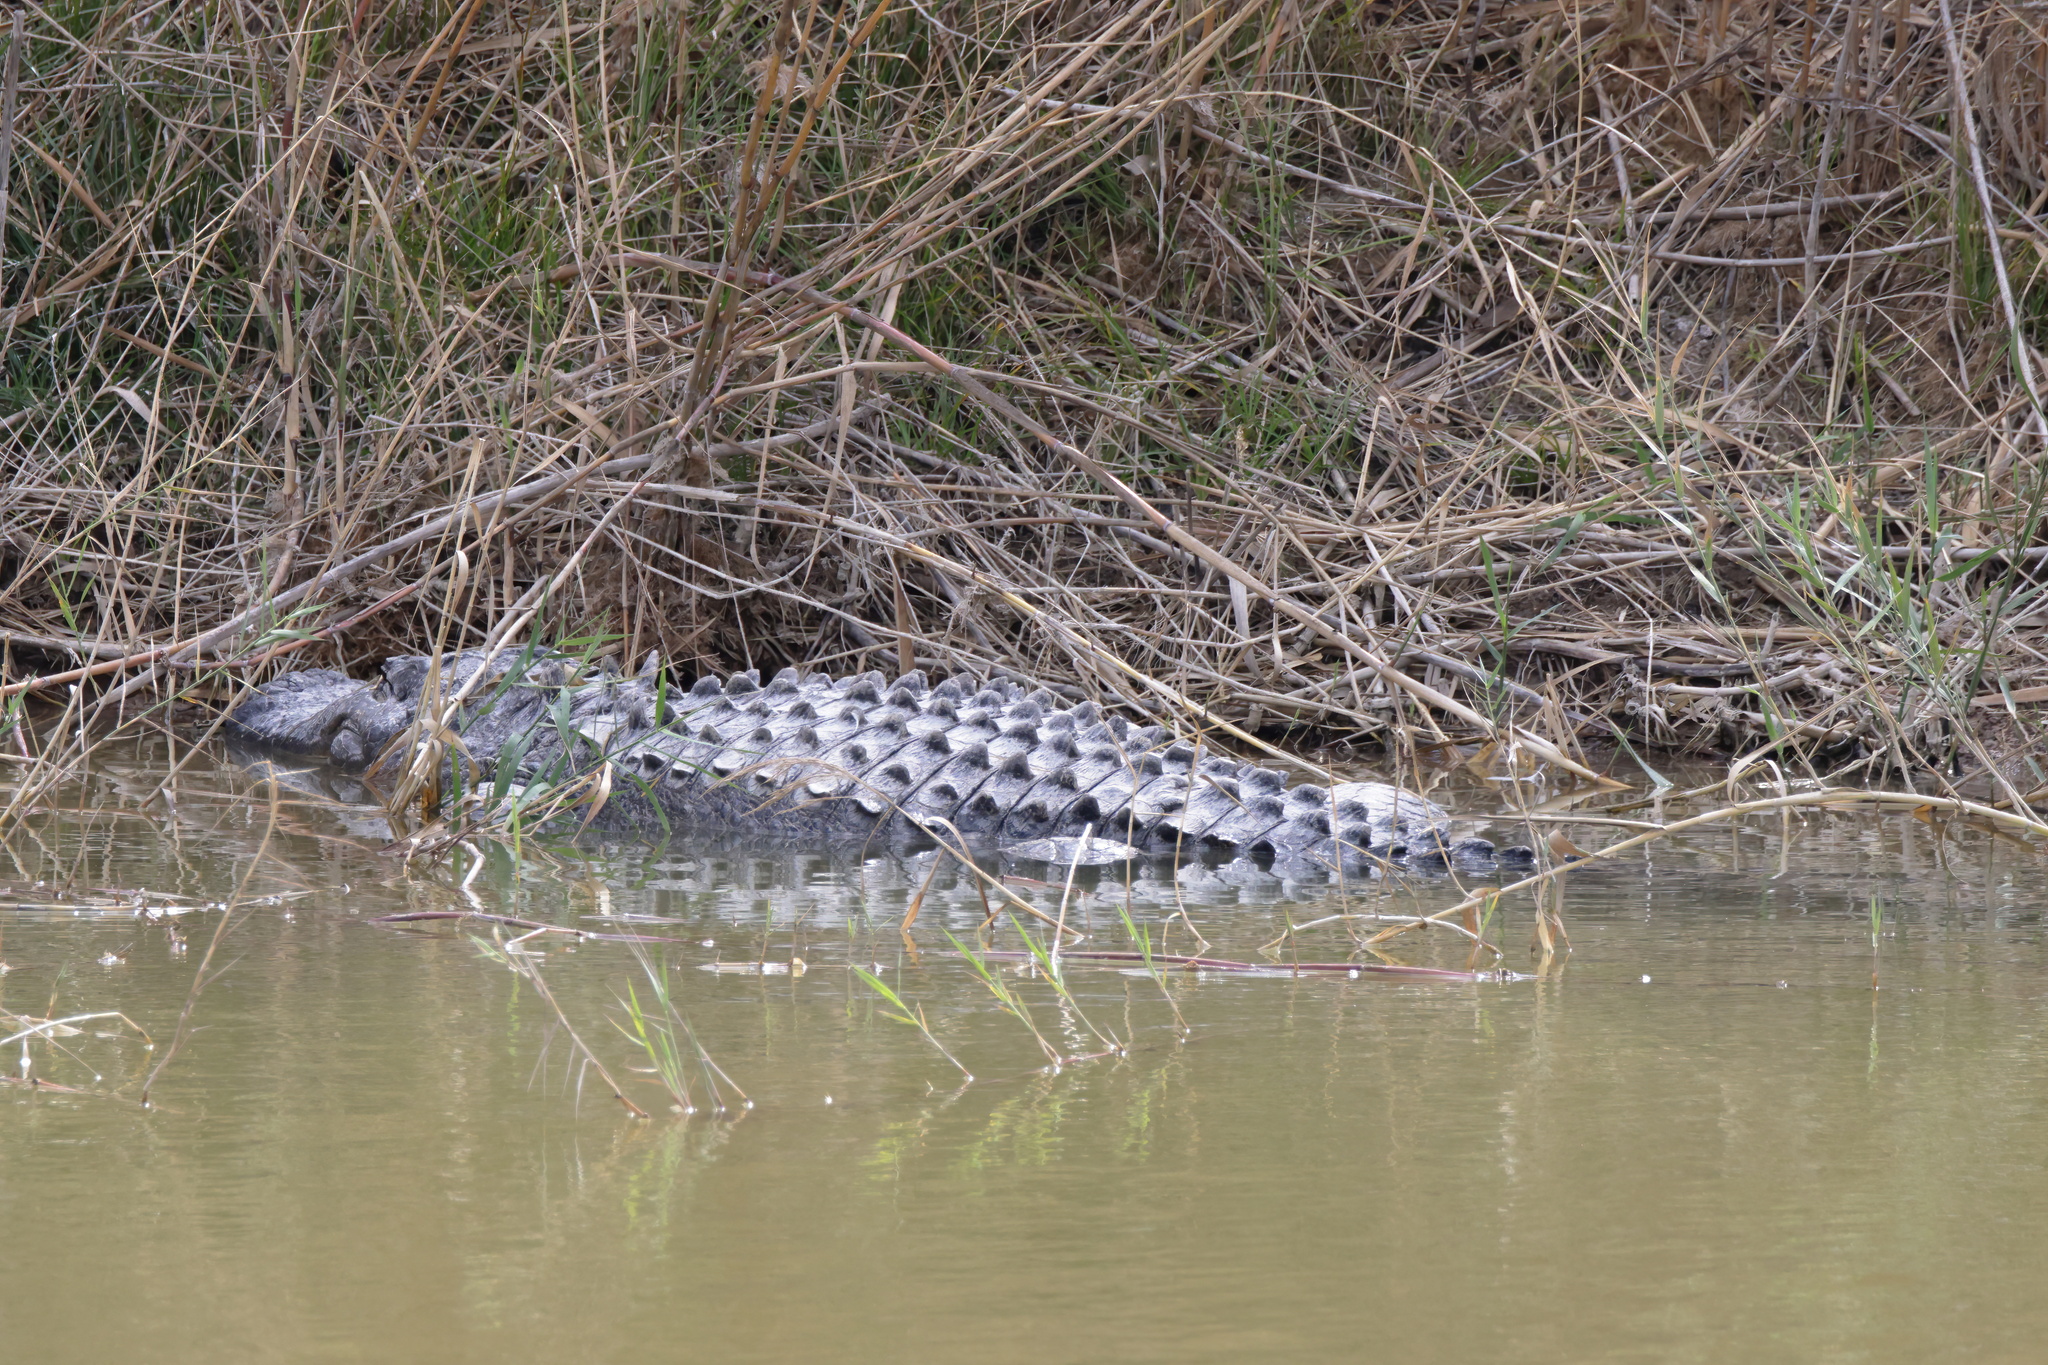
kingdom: Animalia
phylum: Chordata
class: Crocodylia
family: Alligatoridae
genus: Alligator
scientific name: Alligator mississippiensis
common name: American alligator
